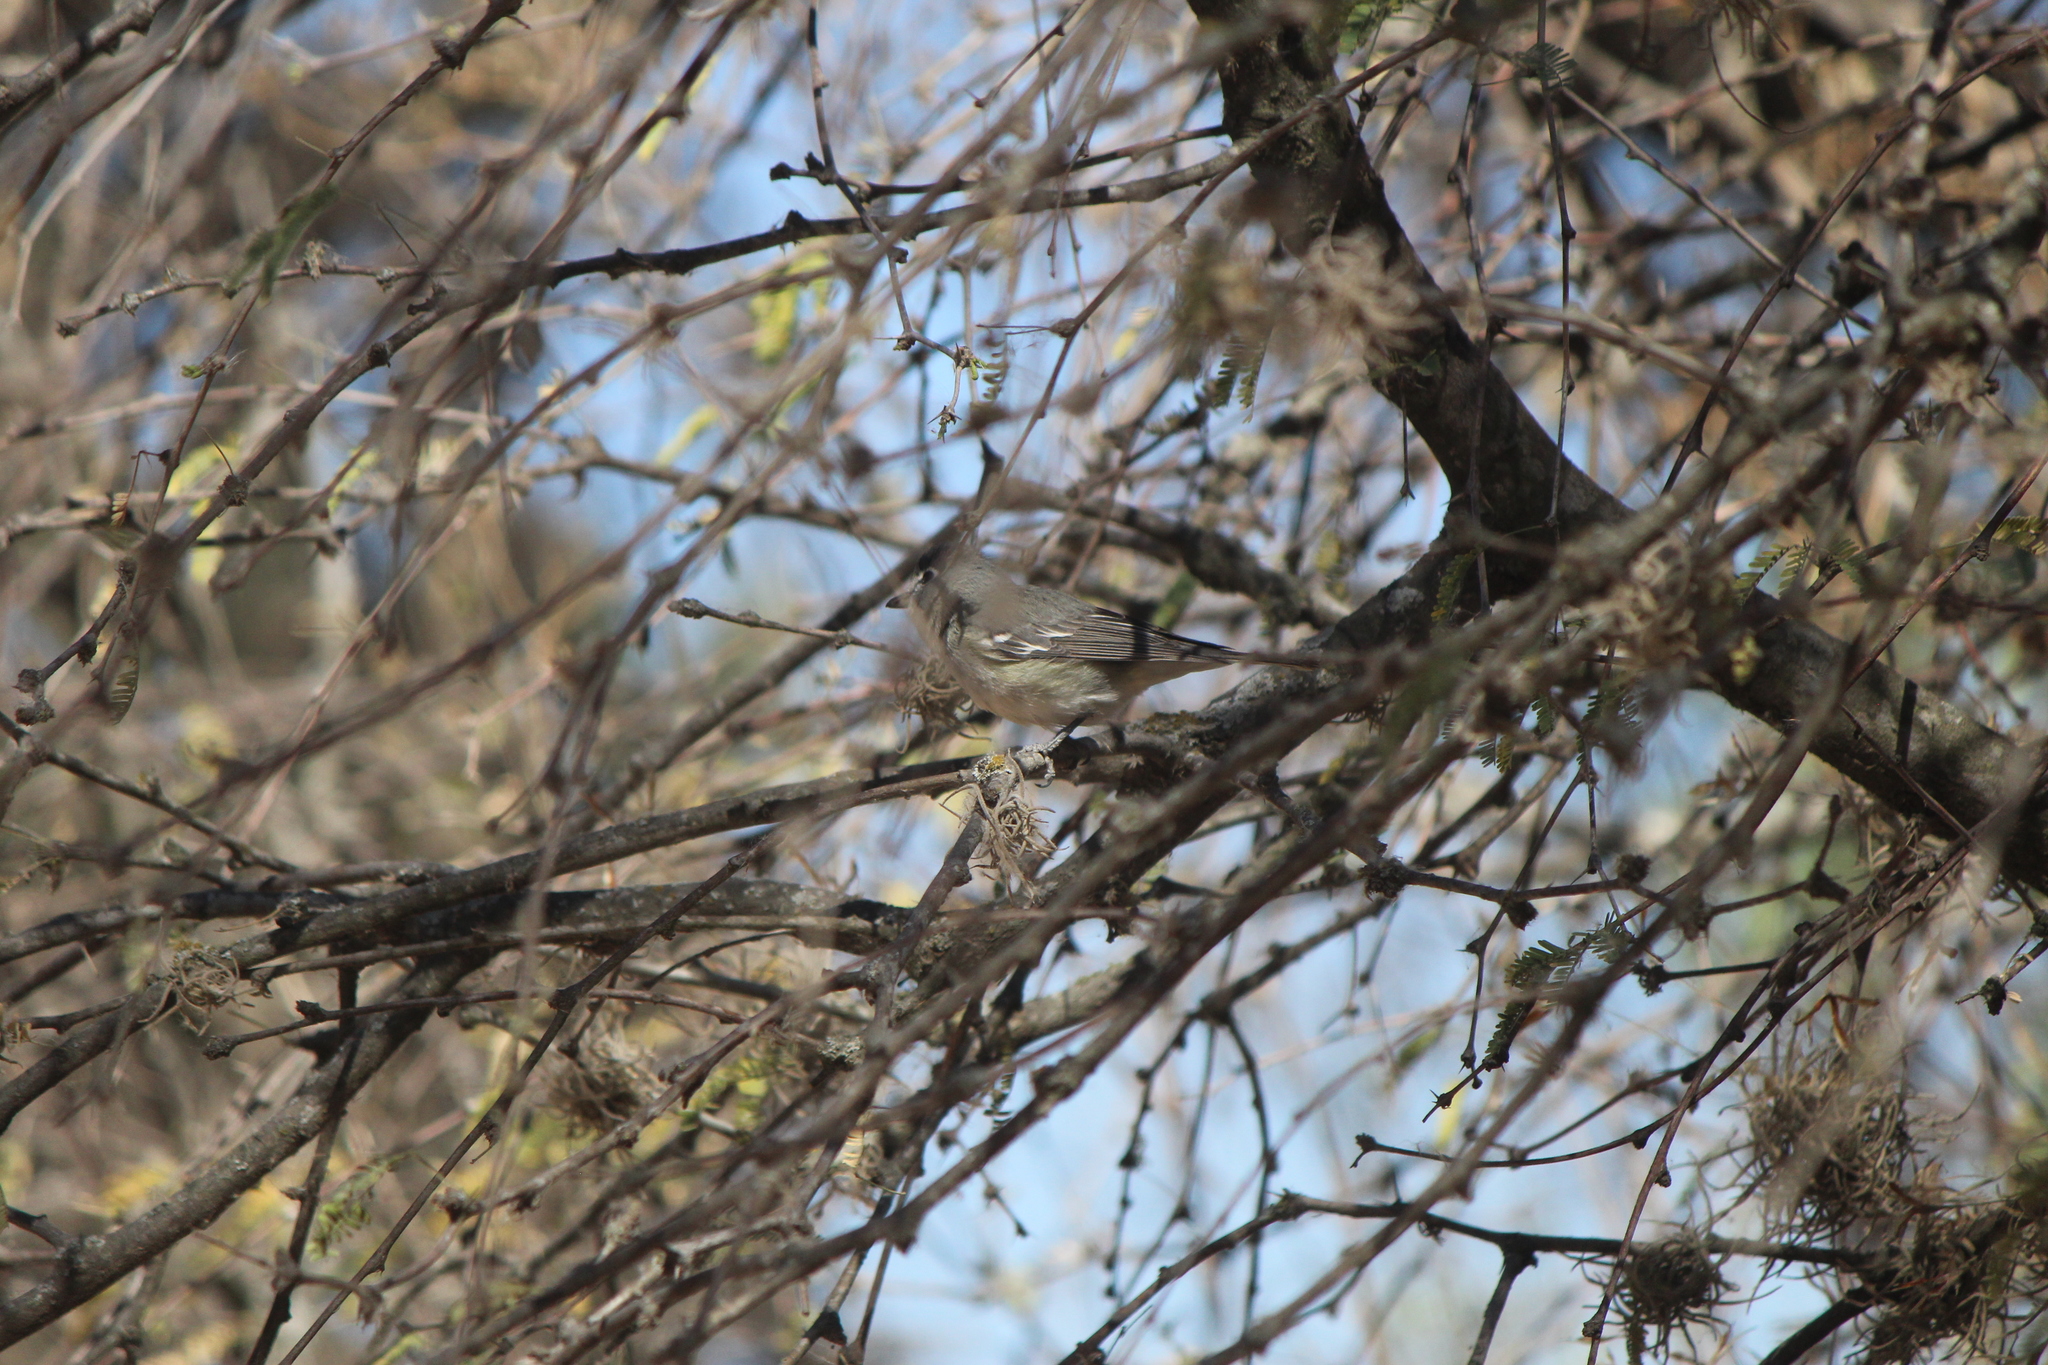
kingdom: Animalia
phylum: Chordata
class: Aves
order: Passeriformes
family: Vireonidae
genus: Vireo
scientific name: Vireo plumbeus
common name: Plumbeous vireo
